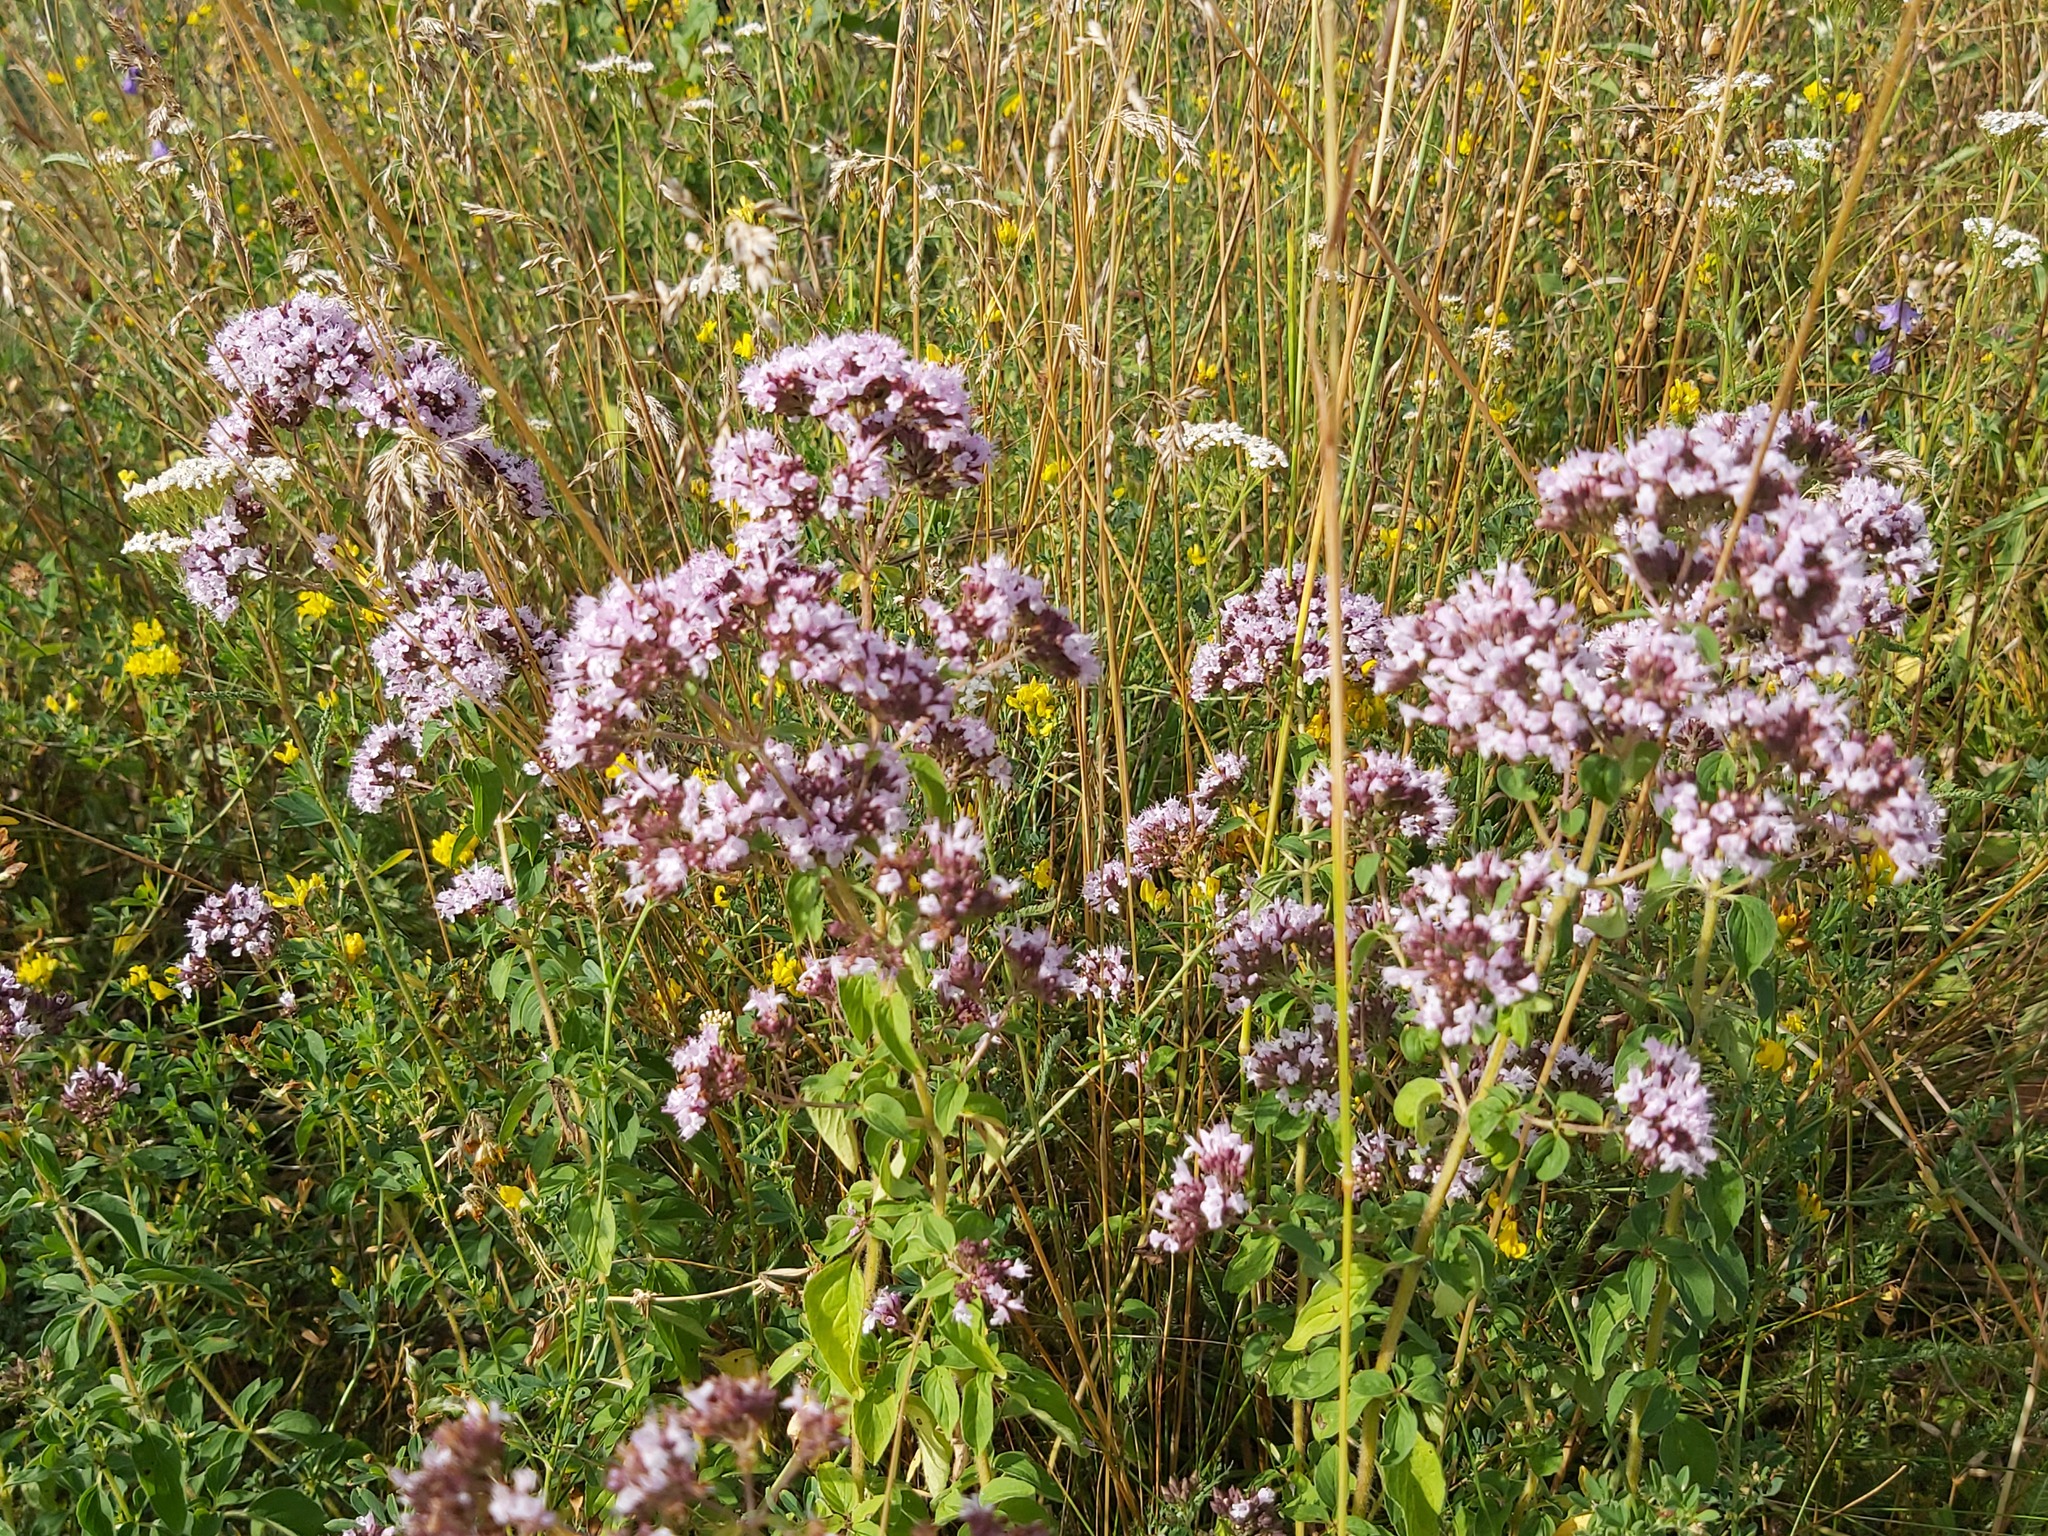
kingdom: Plantae
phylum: Tracheophyta
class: Magnoliopsida
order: Lamiales
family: Lamiaceae
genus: Origanum
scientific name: Origanum vulgare
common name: Wild marjoram
